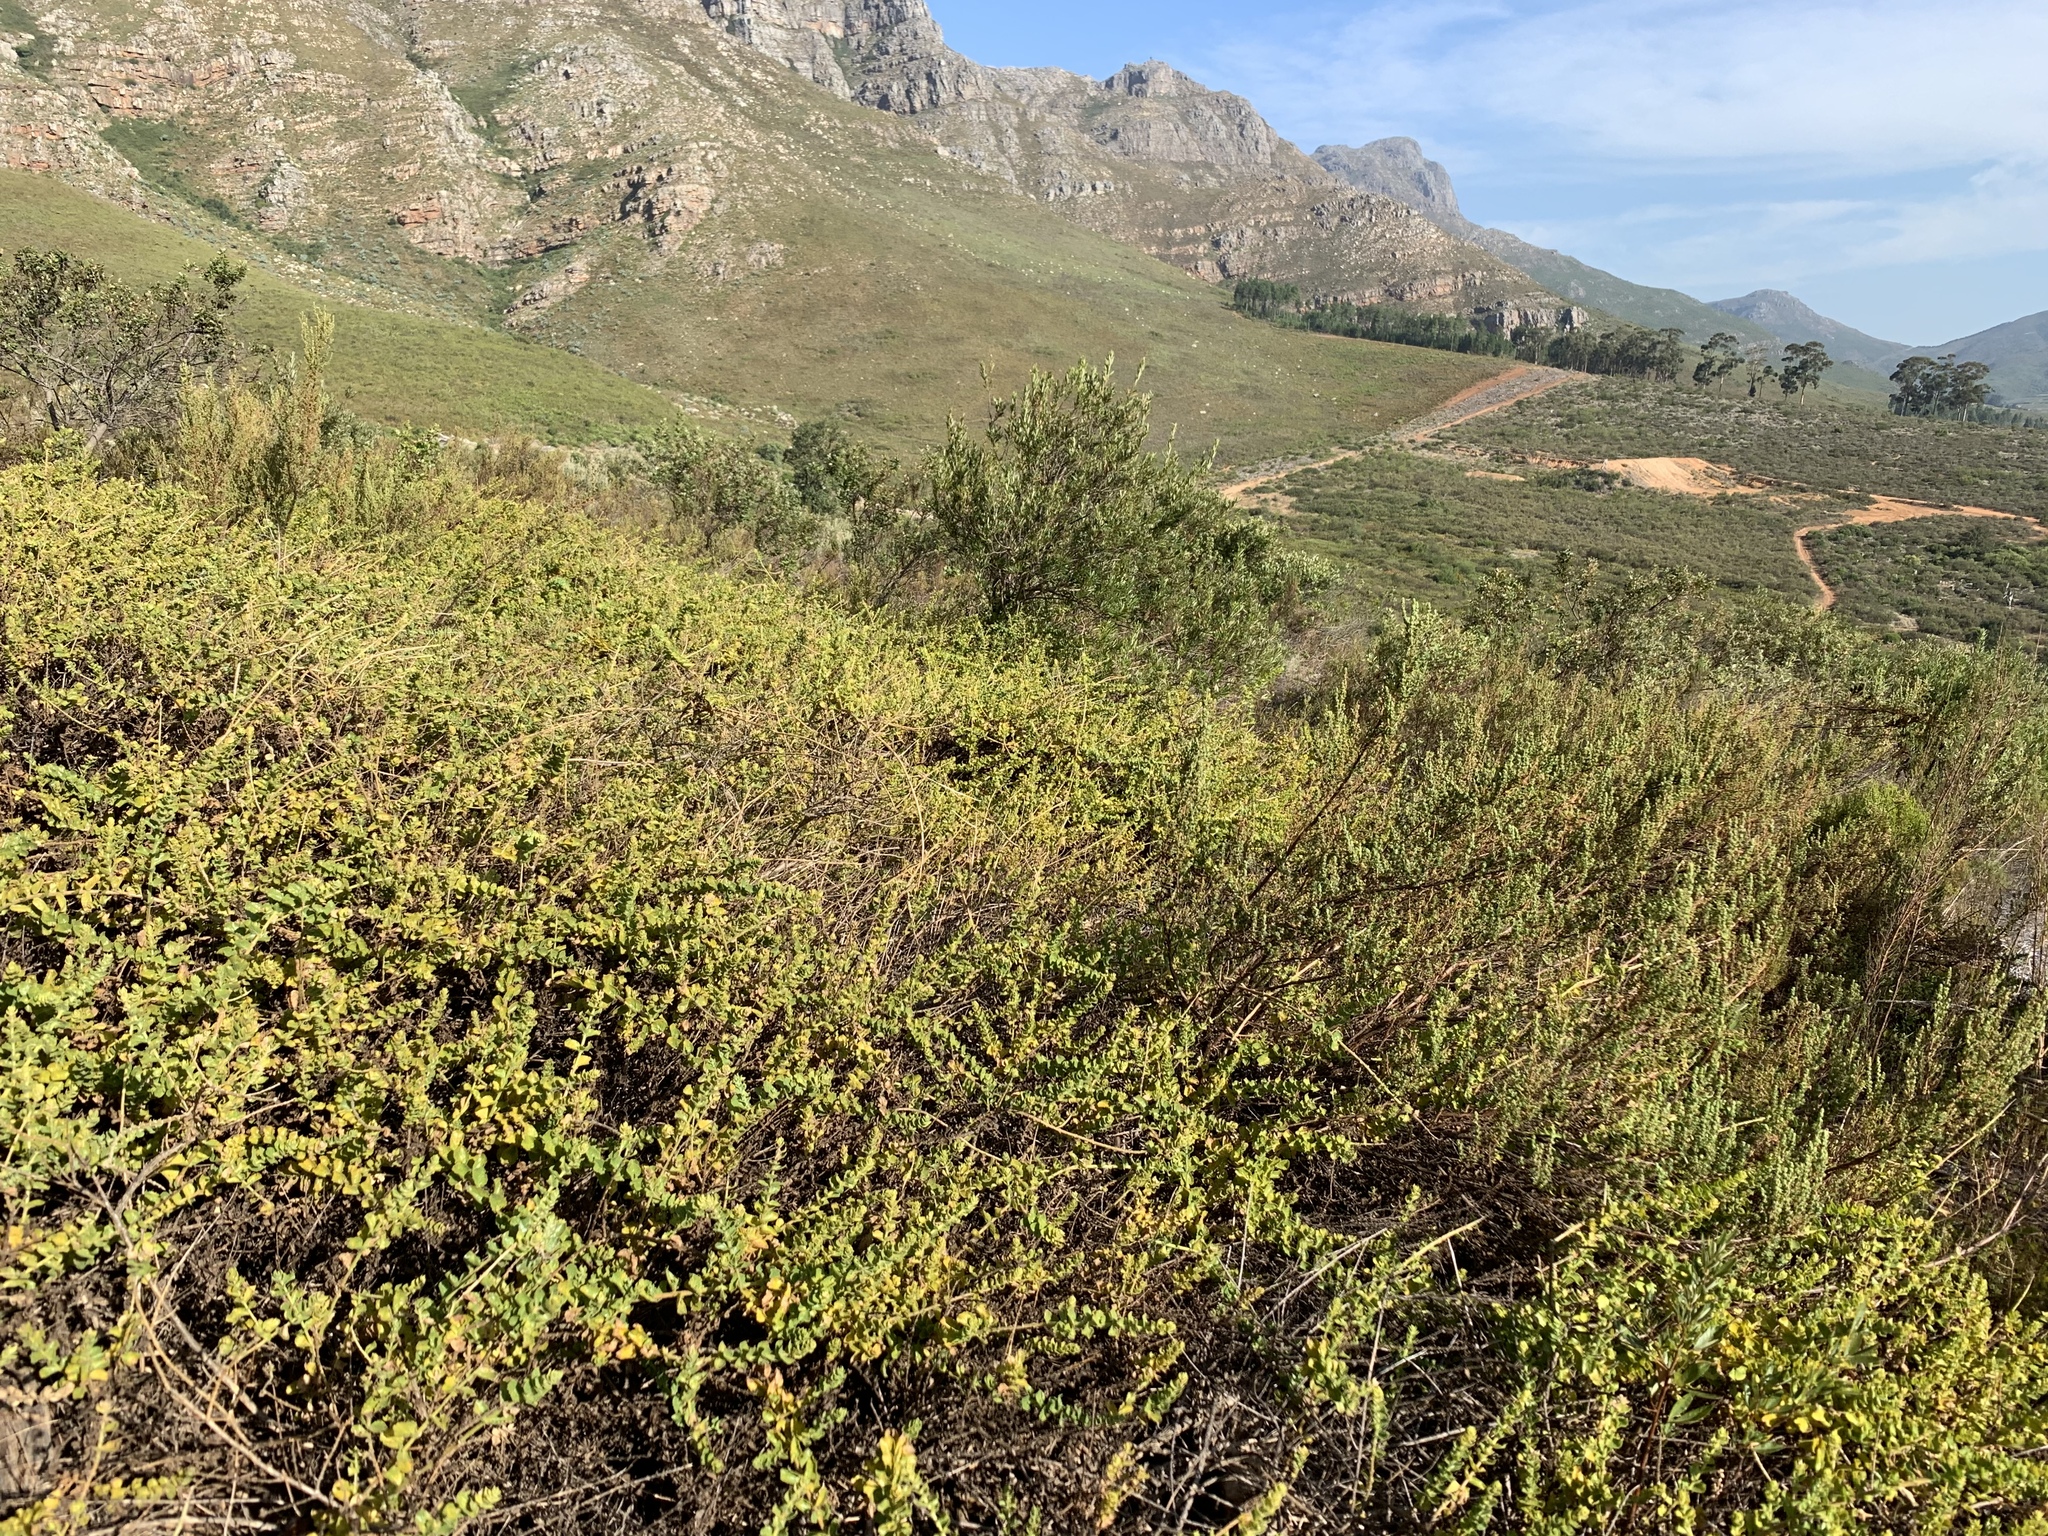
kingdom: Plantae
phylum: Tracheophyta
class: Magnoliopsida
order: Lamiales
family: Scrophulariaceae
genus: Oftia
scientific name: Oftia africana
